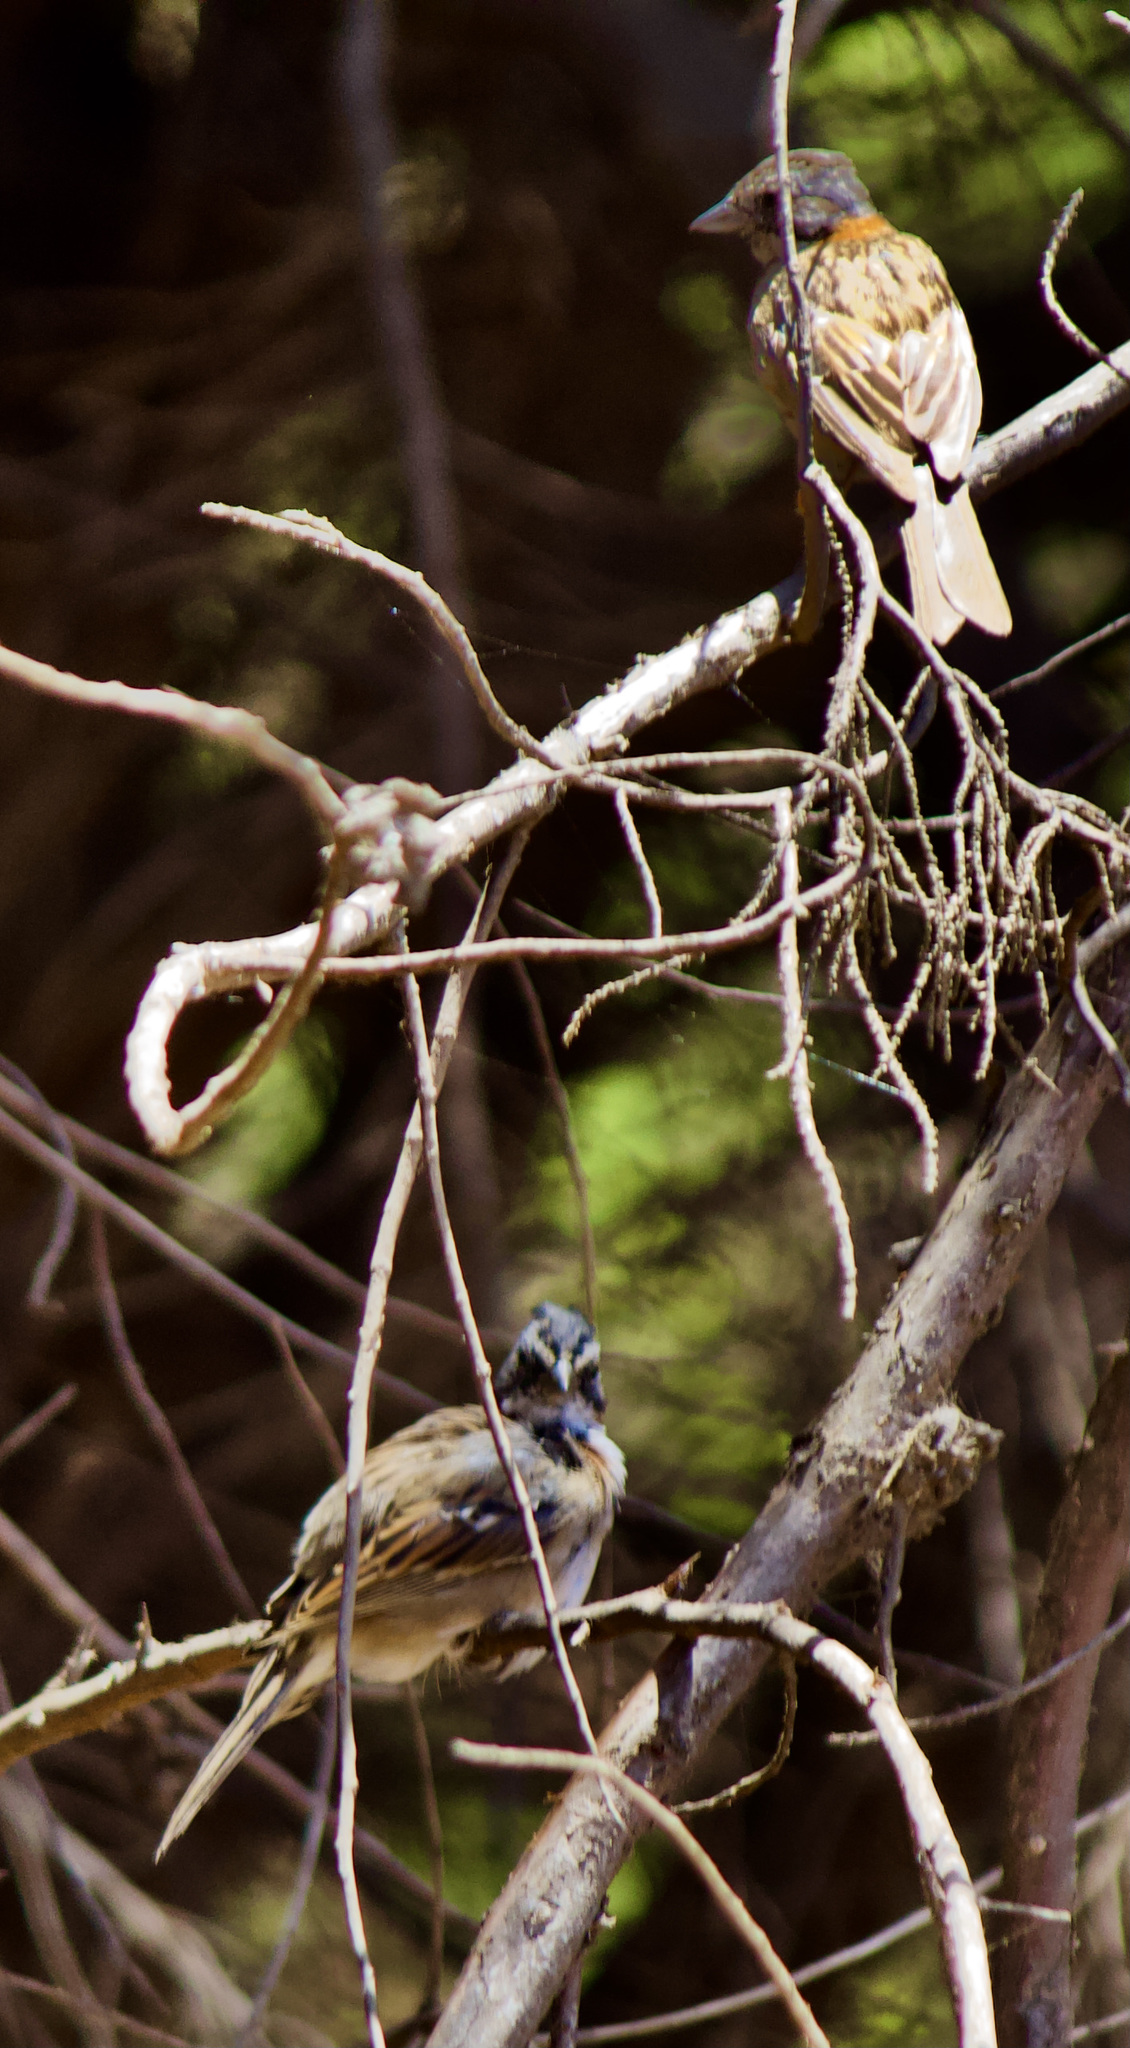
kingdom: Animalia
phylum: Chordata
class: Aves
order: Passeriformes
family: Passerellidae
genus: Zonotrichia
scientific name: Zonotrichia capensis
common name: Rufous-collared sparrow
